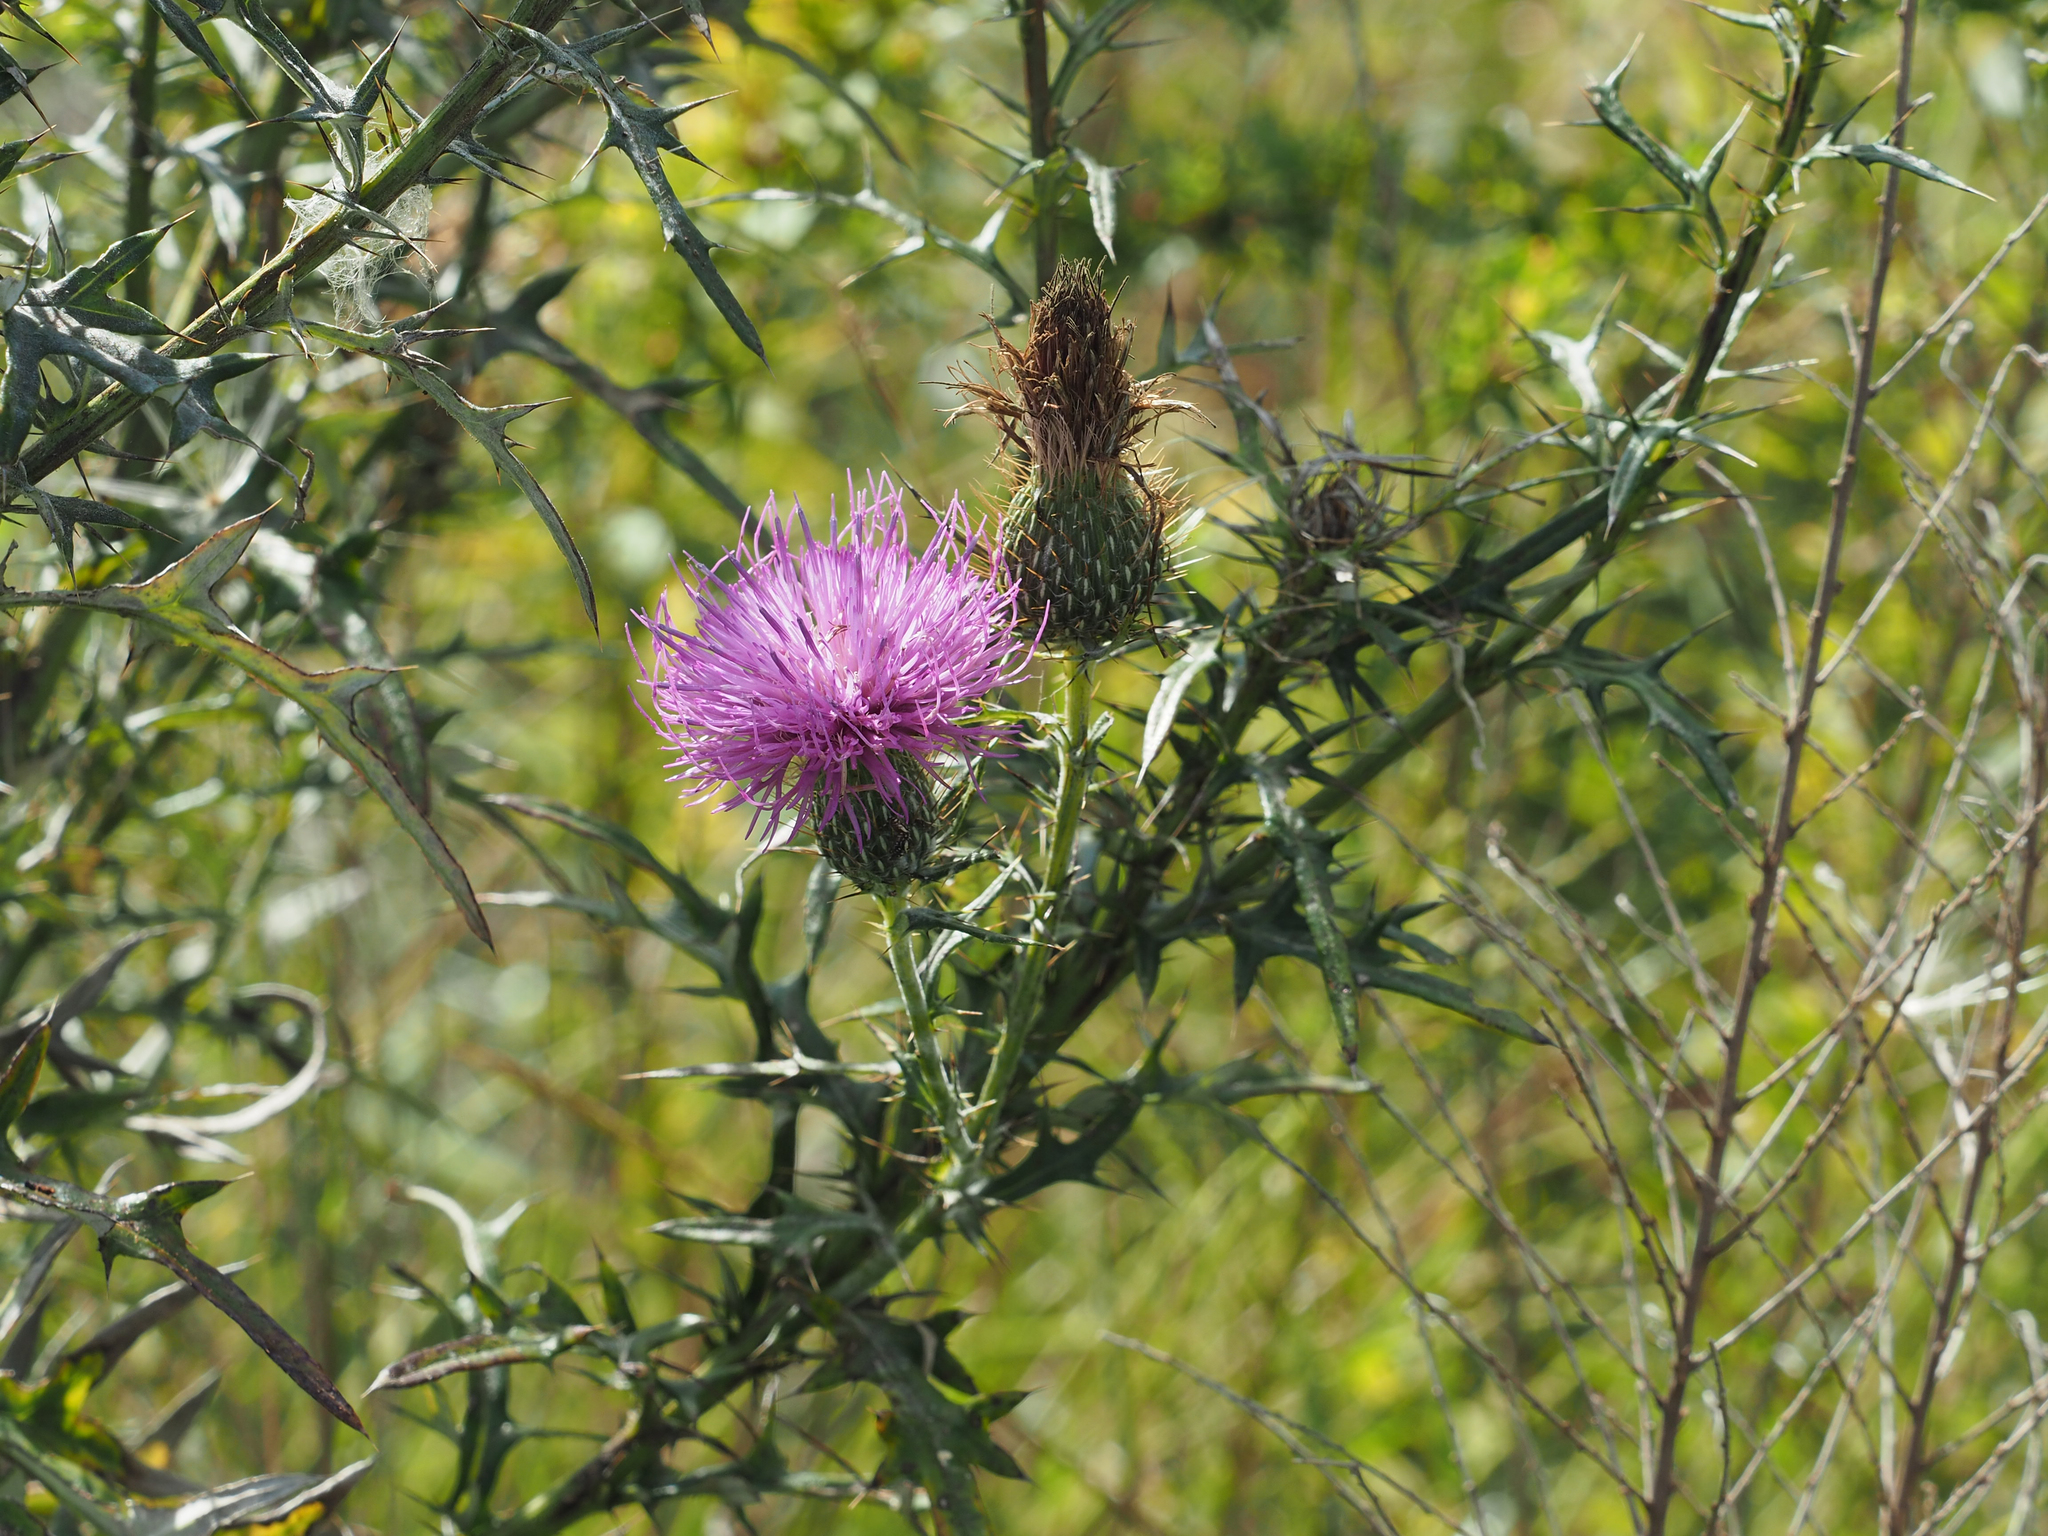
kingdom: Plantae
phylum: Tracheophyta
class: Magnoliopsida
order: Asterales
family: Asteraceae
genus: Cirsium
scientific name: Cirsium discolor
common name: Field thistle
